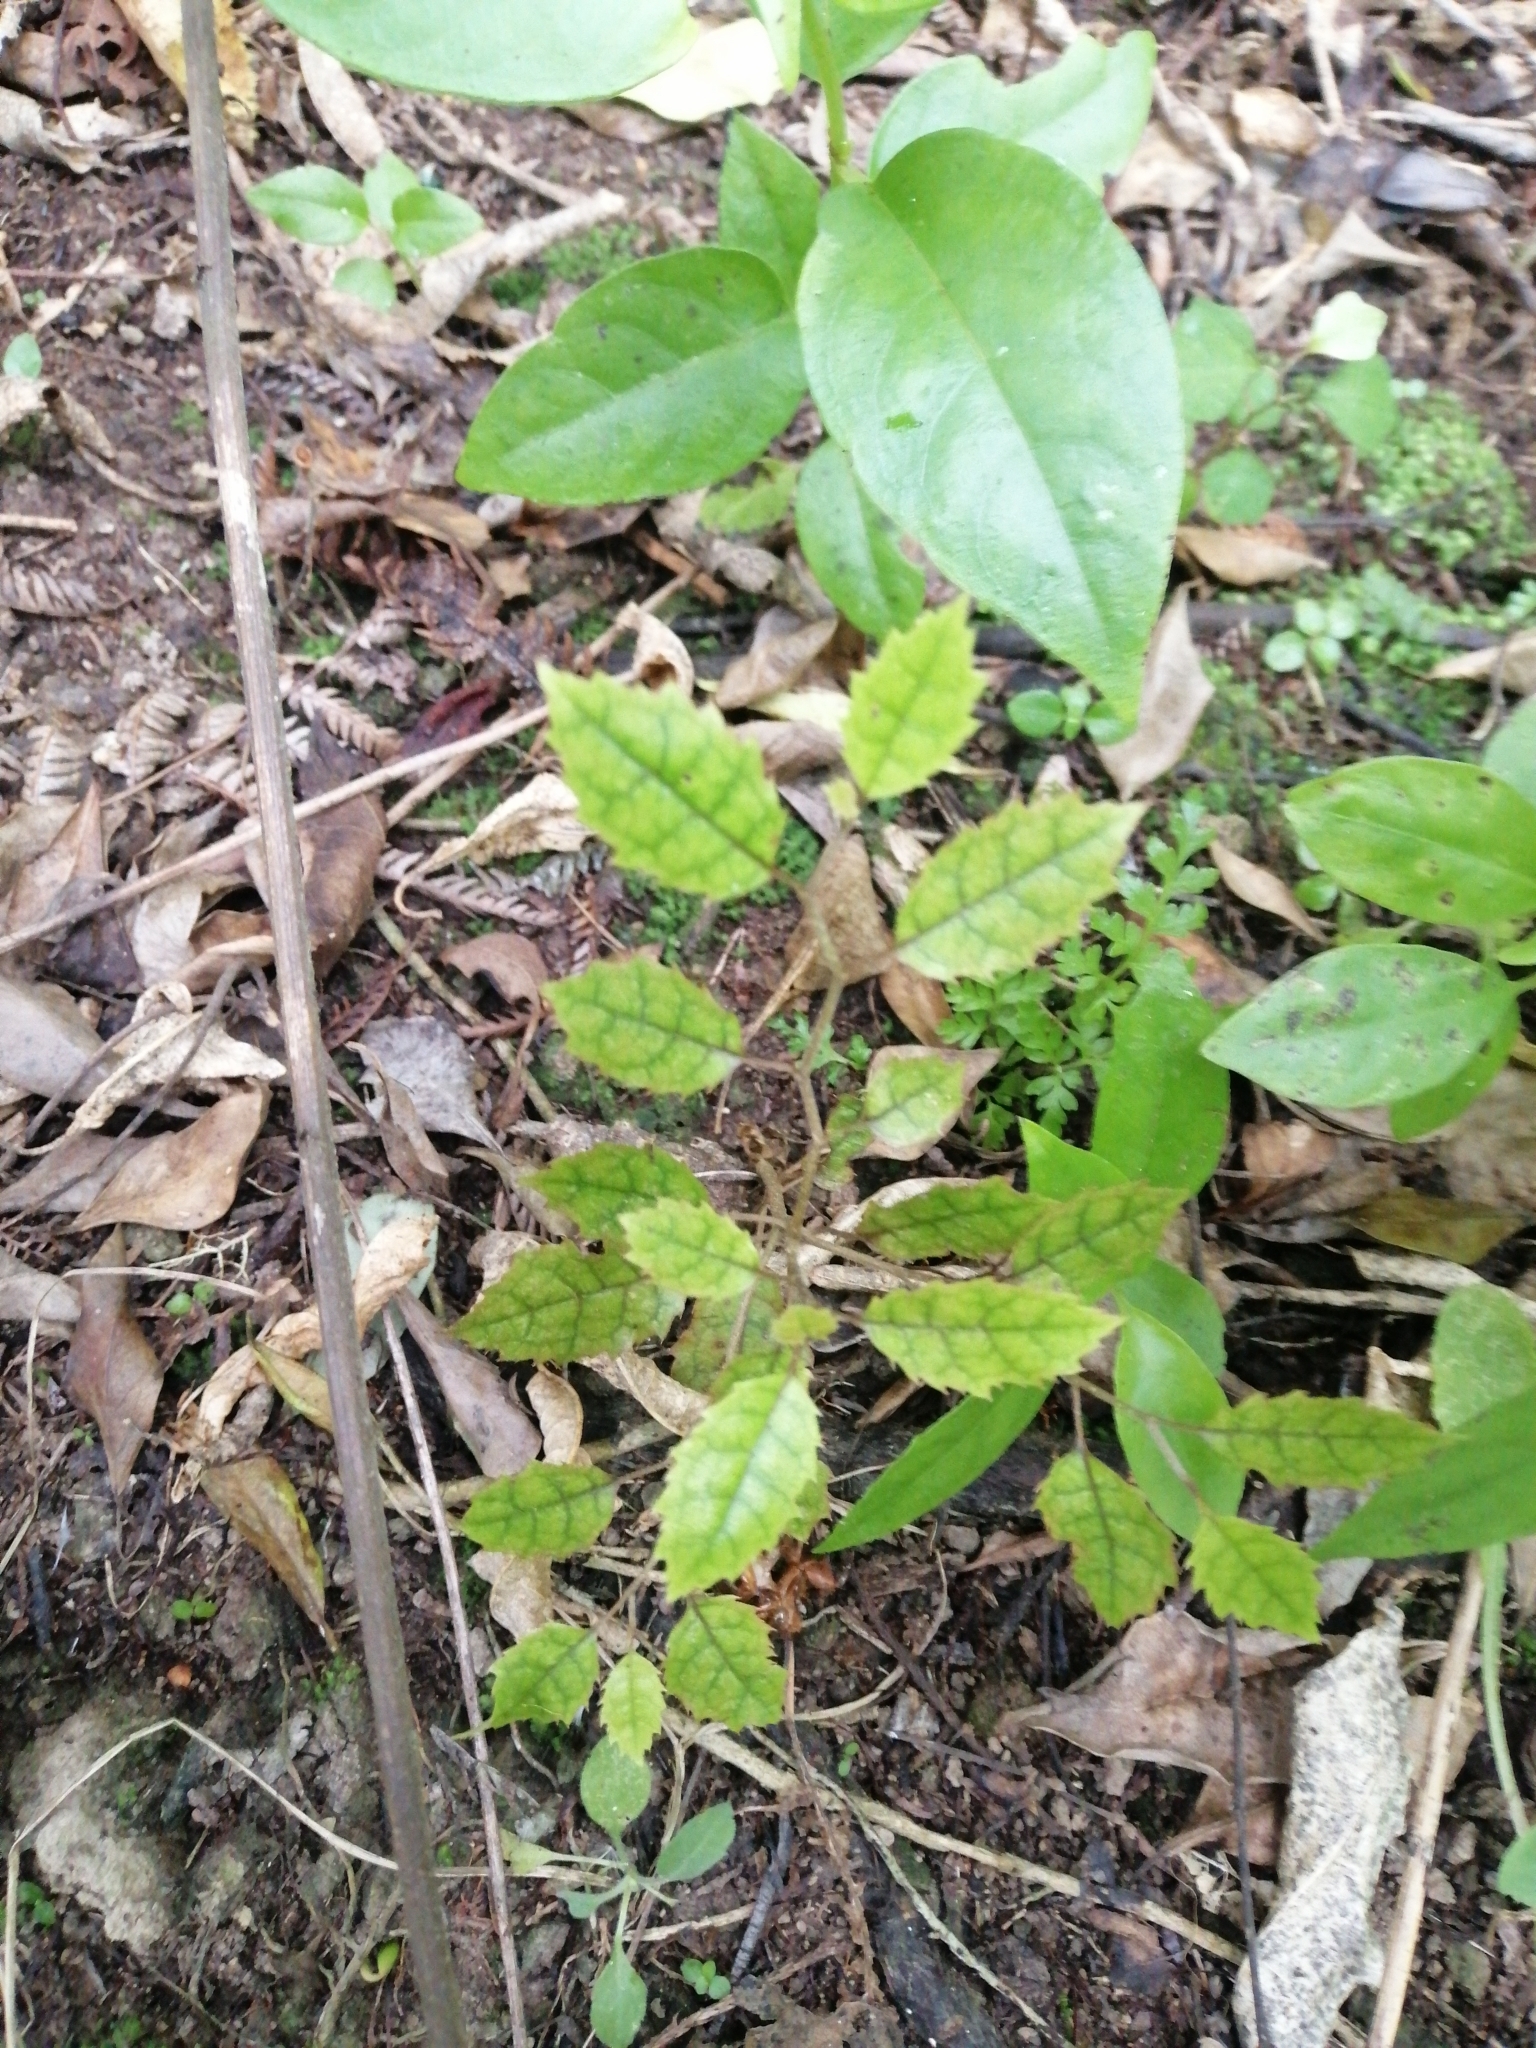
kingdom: Plantae
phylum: Tracheophyta
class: Magnoliopsida
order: Asterales
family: Rousseaceae
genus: Carpodetus
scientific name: Carpodetus serratus
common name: White mapau
